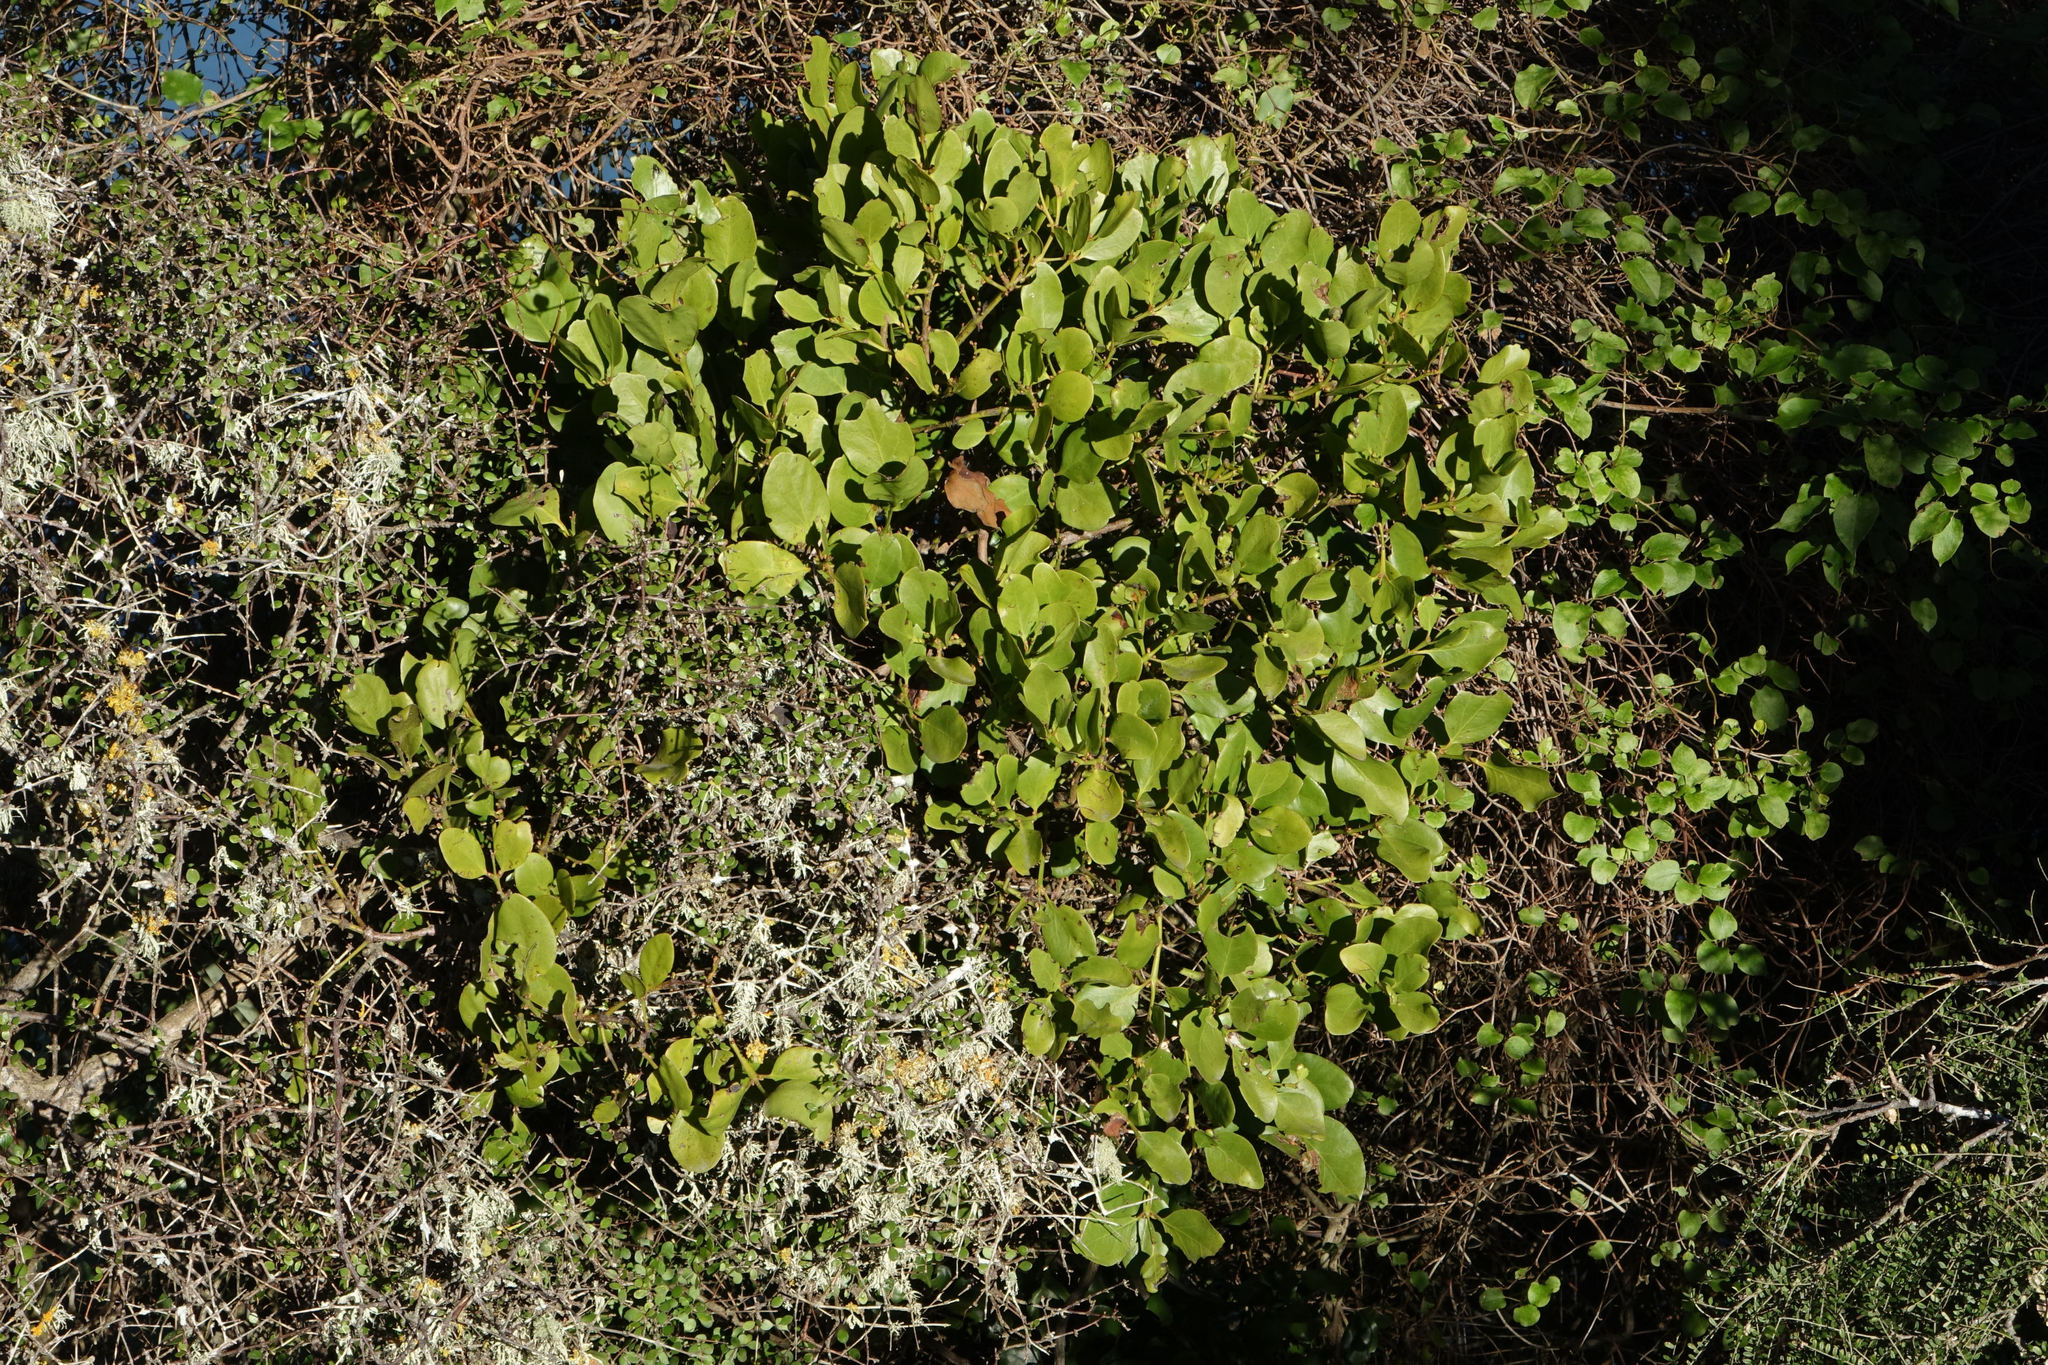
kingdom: Plantae
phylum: Tracheophyta
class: Magnoliopsida
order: Santalales
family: Loranthaceae
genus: Ileostylus
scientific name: Ileostylus micranthus
